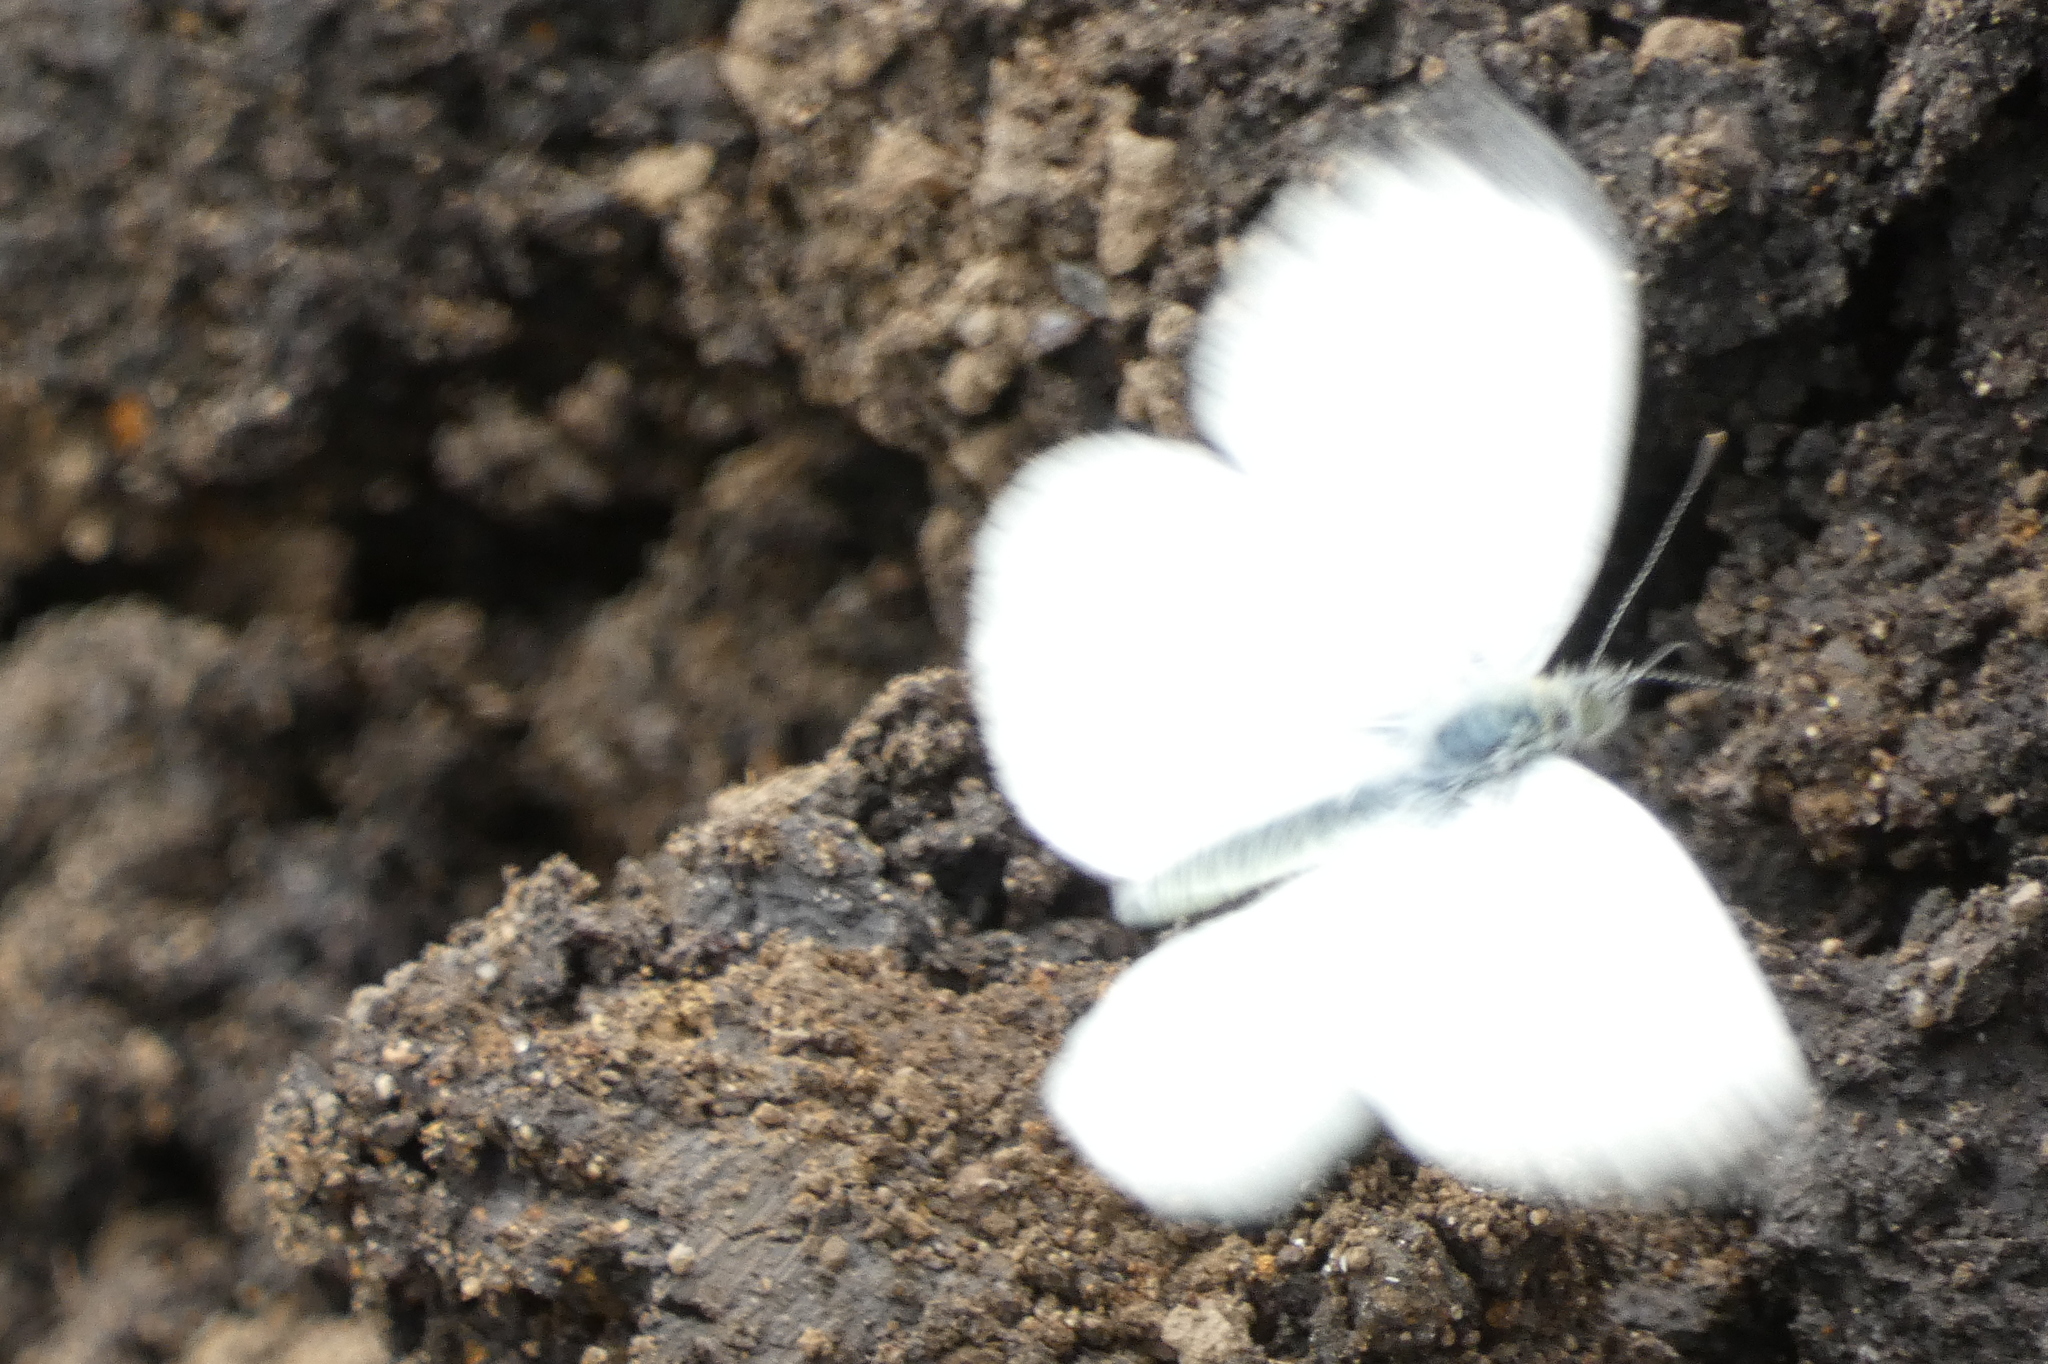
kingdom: Animalia
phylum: Arthropoda
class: Insecta
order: Lepidoptera
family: Pieridae
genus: Pieris
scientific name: Pieris napi
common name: Green-veined white
